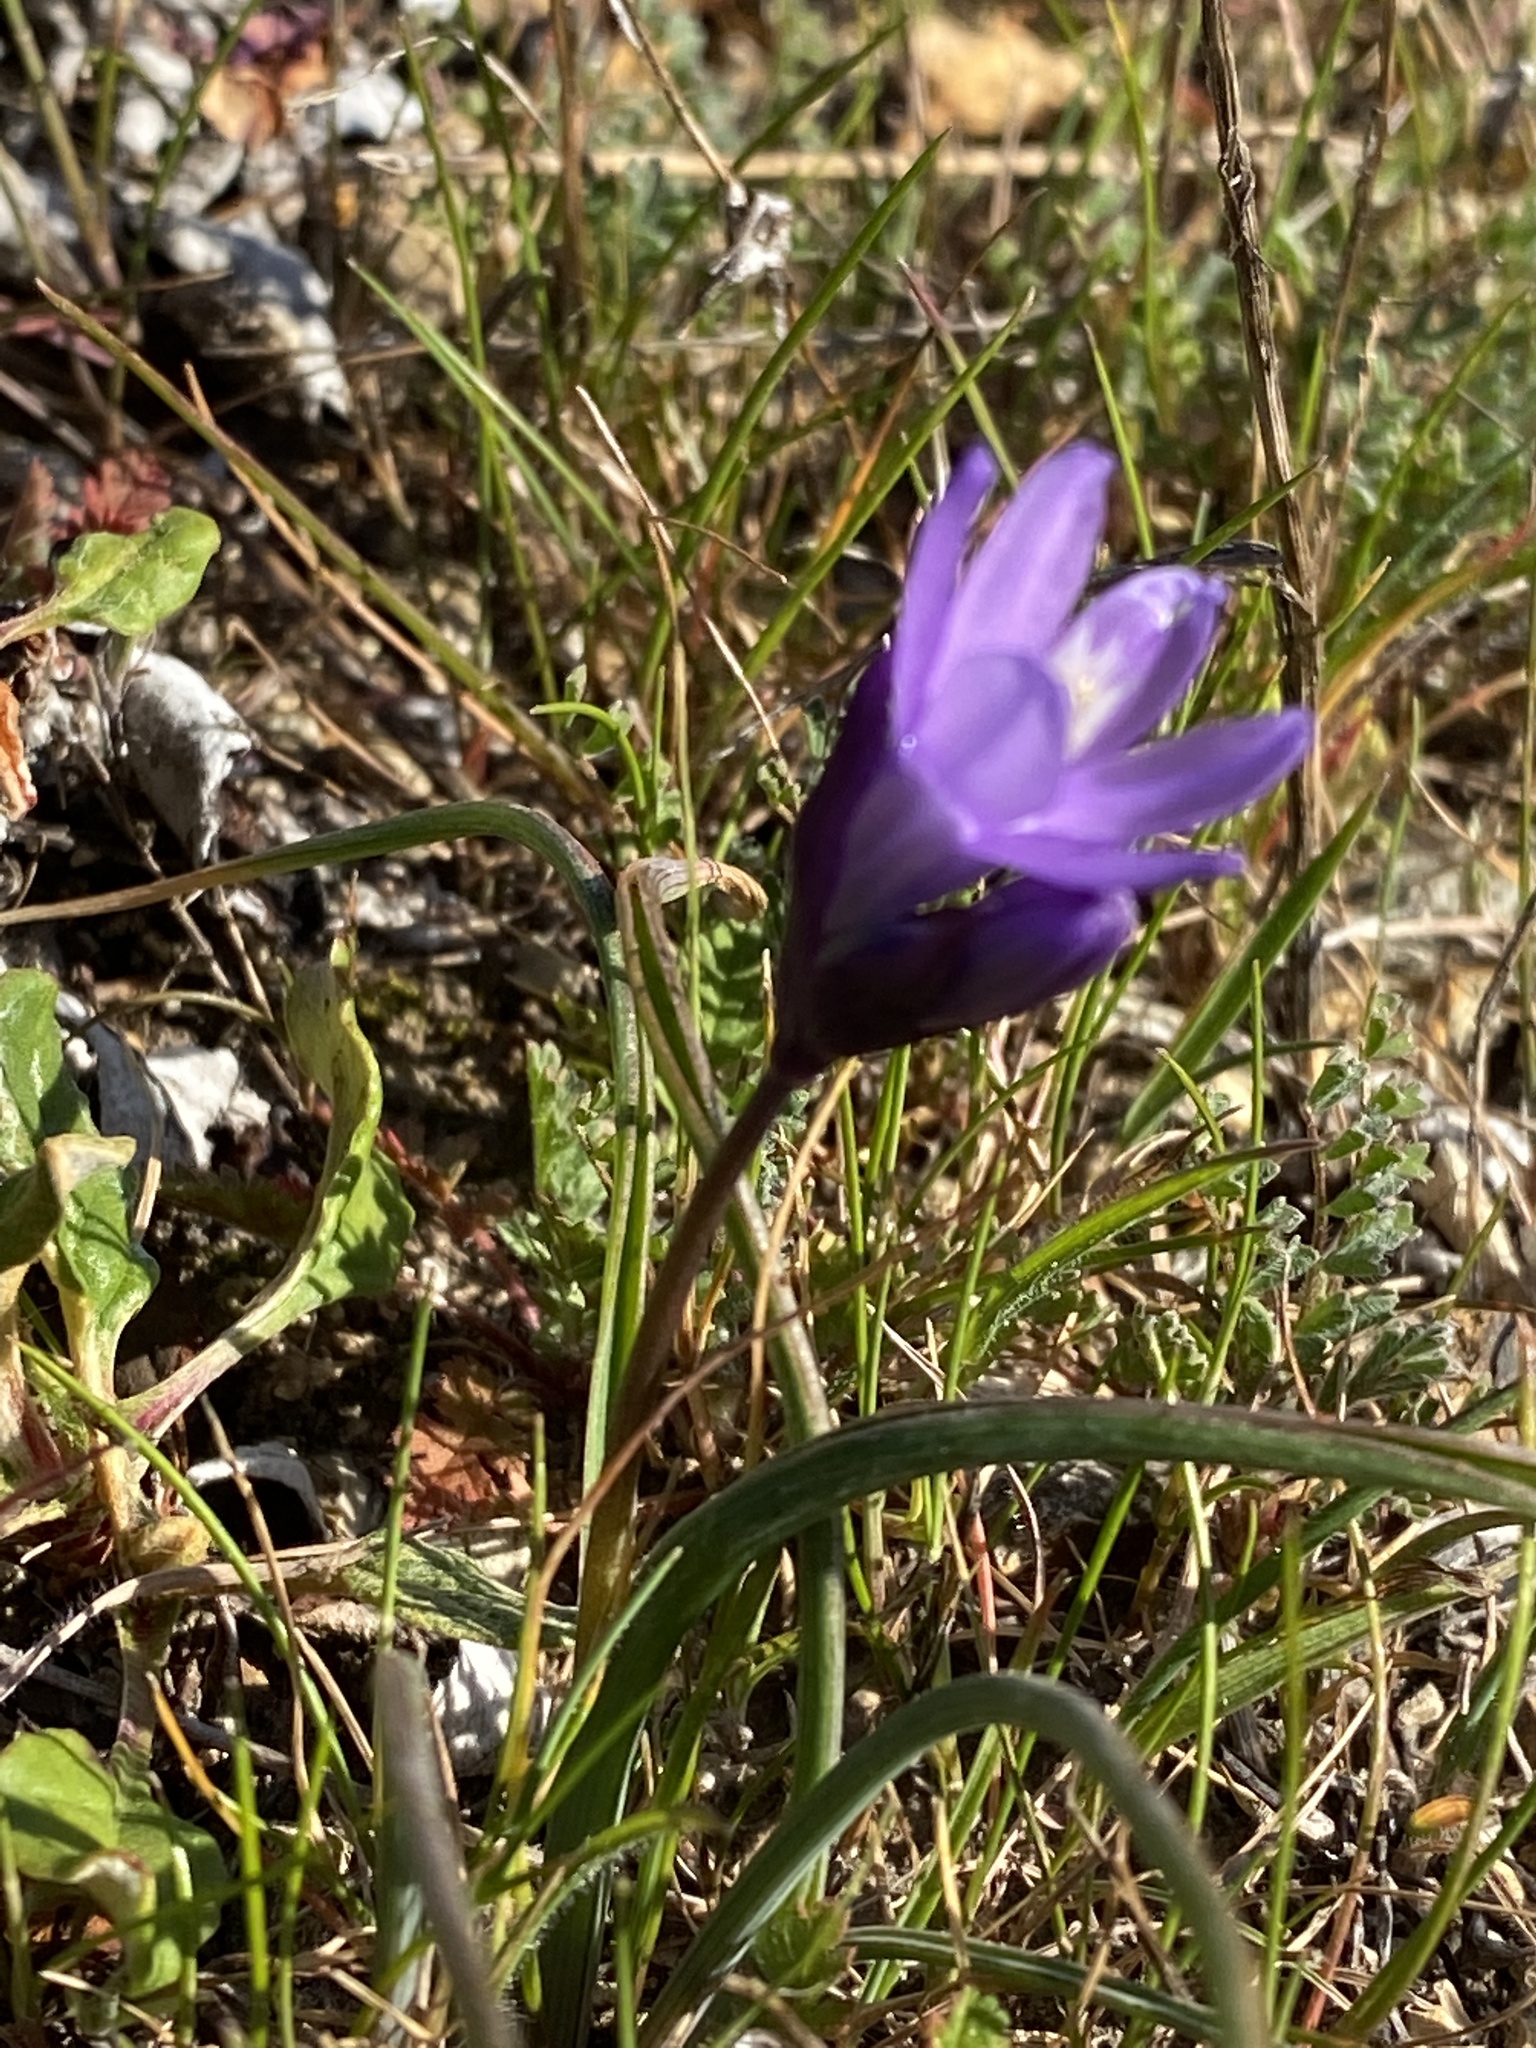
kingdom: Plantae
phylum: Tracheophyta
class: Liliopsida
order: Asparagales
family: Asparagaceae
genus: Dipterostemon
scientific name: Dipterostemon capitatus
